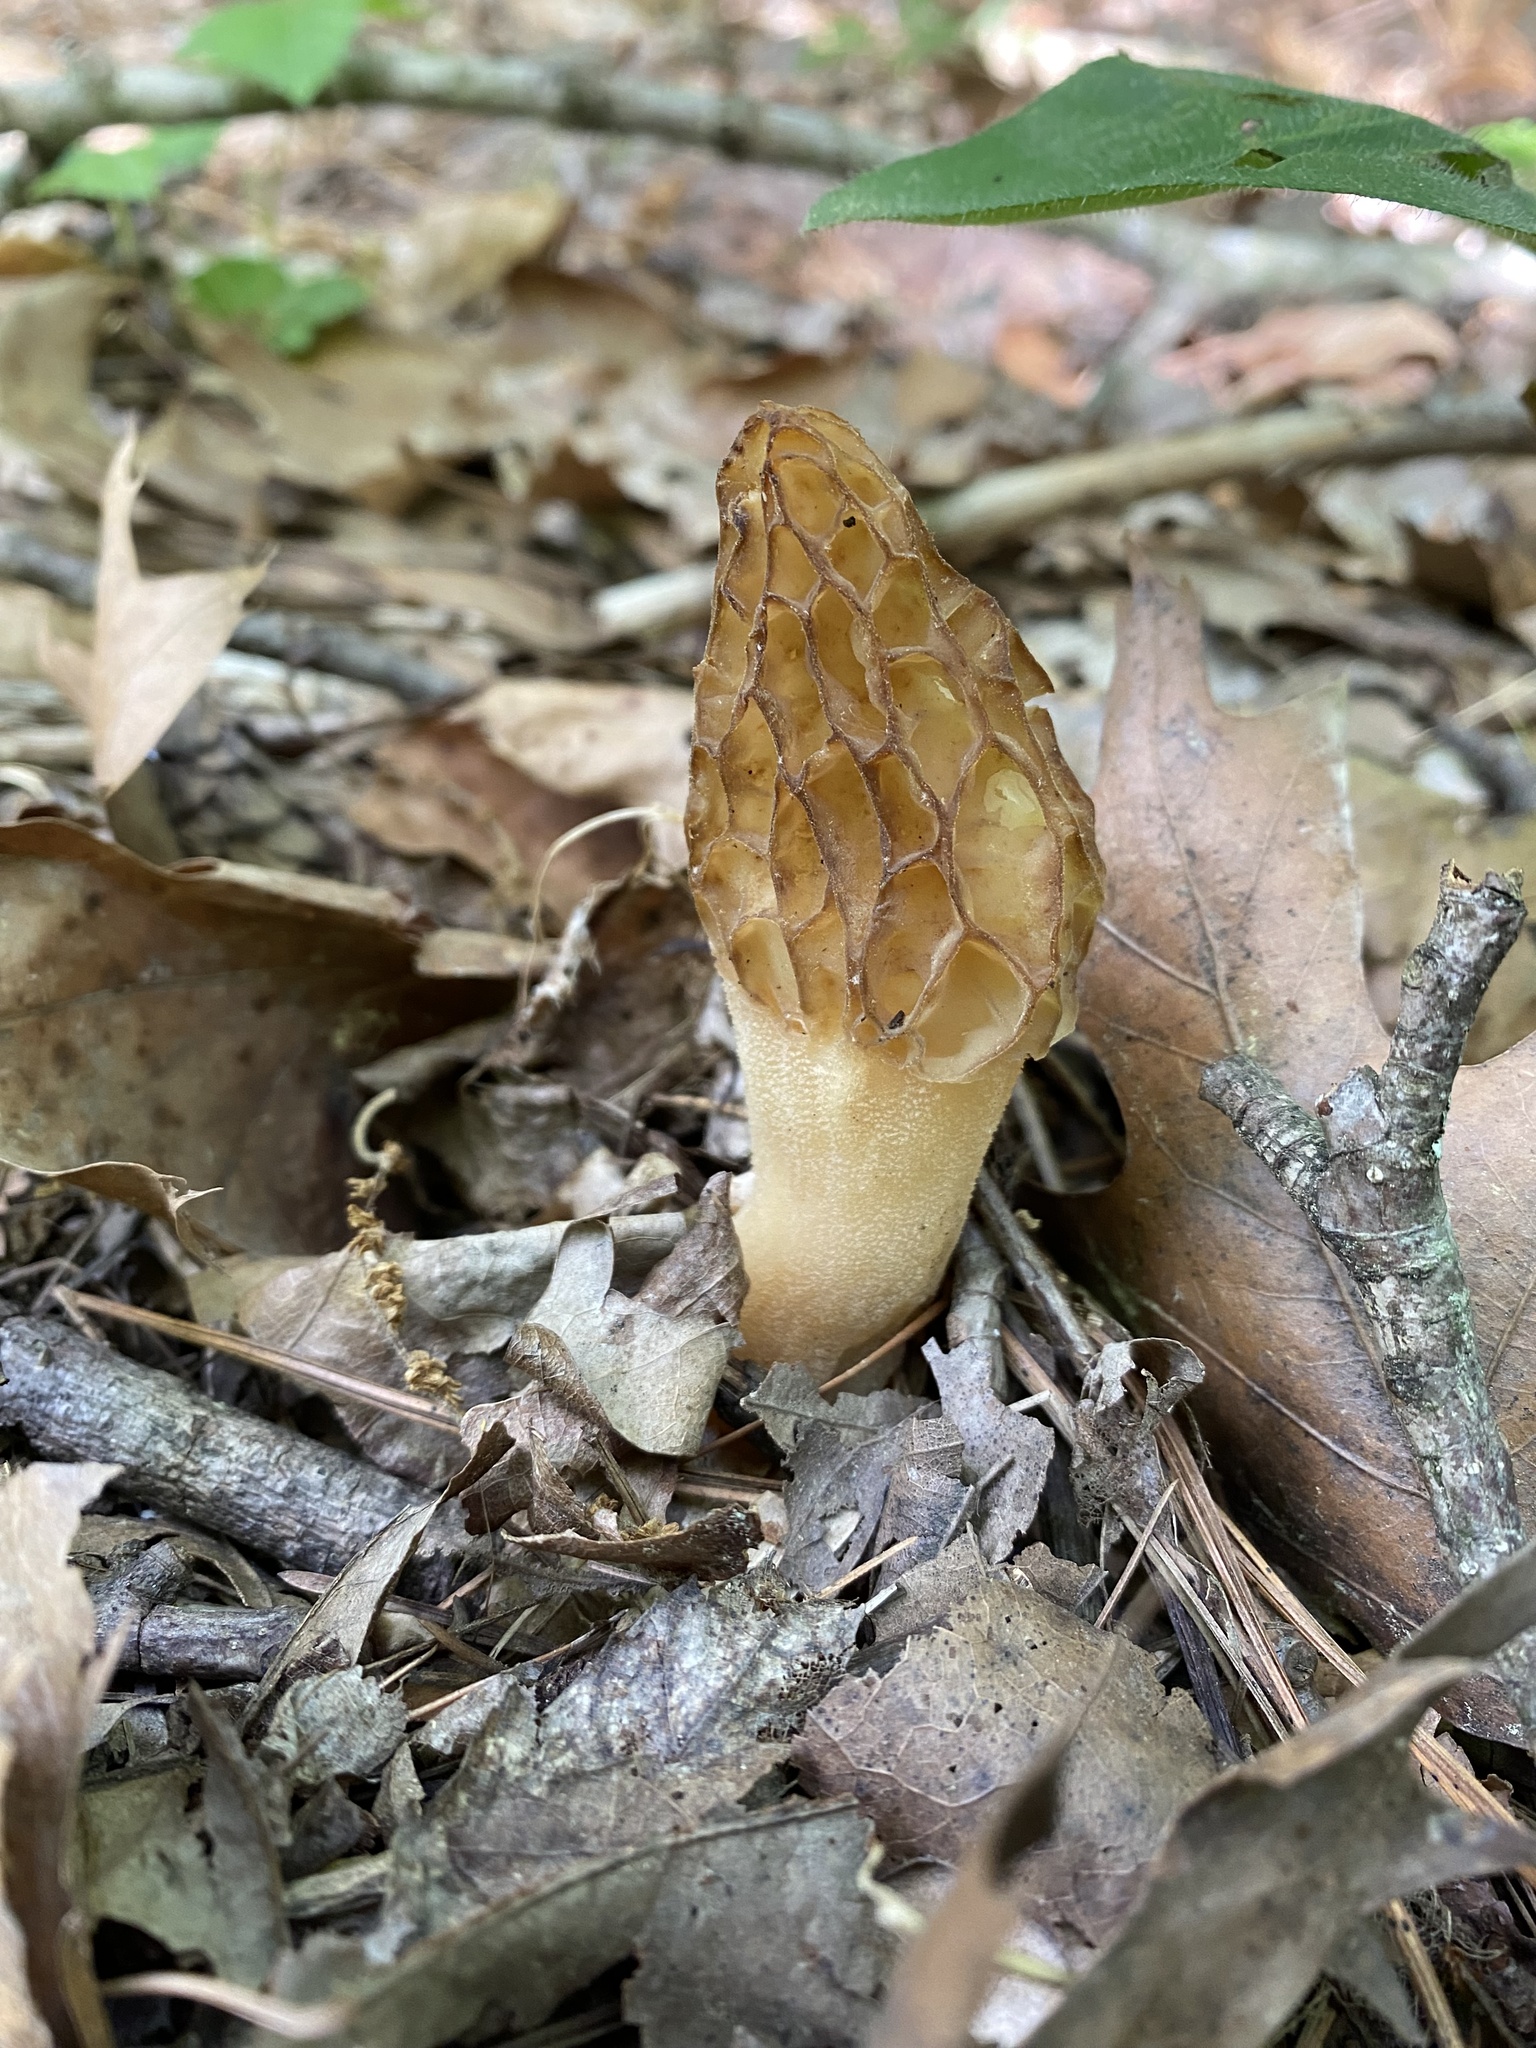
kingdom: Fungi
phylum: Ascomycota
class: Pezizomycetes
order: Pezizales
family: Morchellaceae
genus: Morchella
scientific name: Morchella americana
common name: White morel
